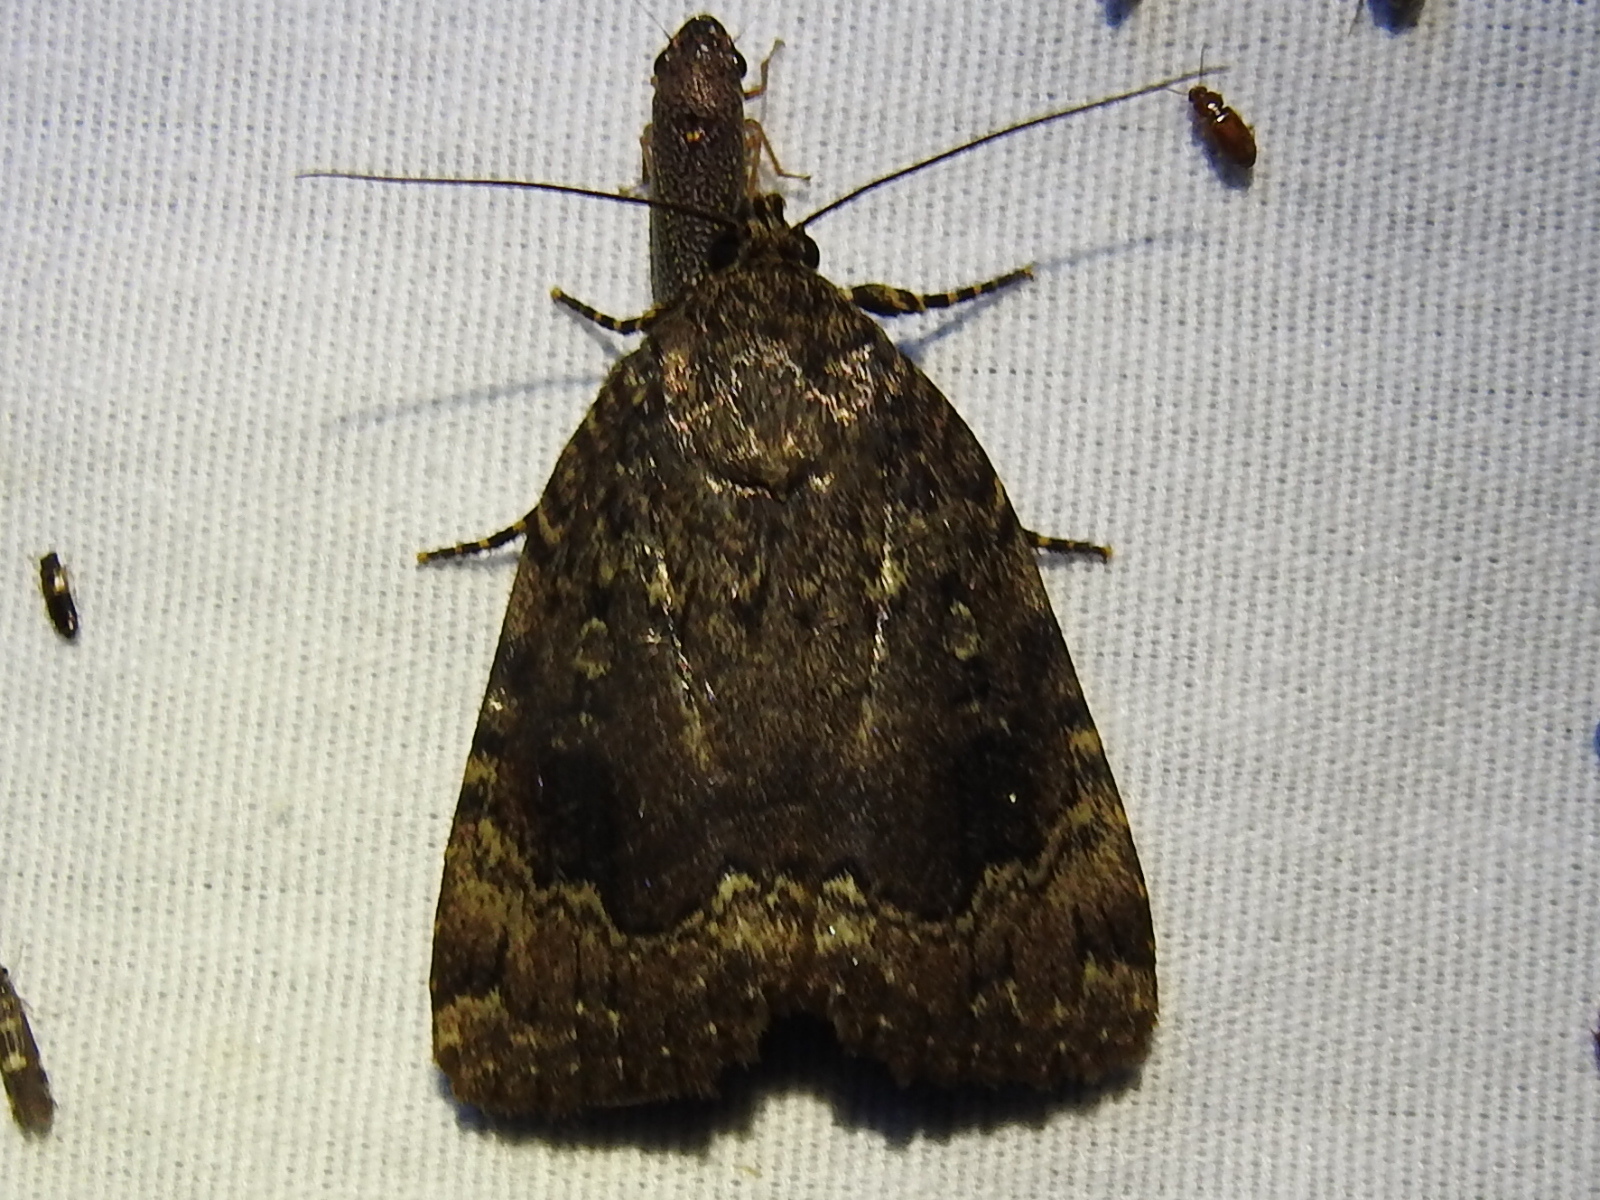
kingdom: Animalia
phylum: Arthropoda
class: Insecta
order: Lepidoptera
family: Noctuidae
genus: Amphipyra
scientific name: Amphipyra pyramidoides
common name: American copper underwing
